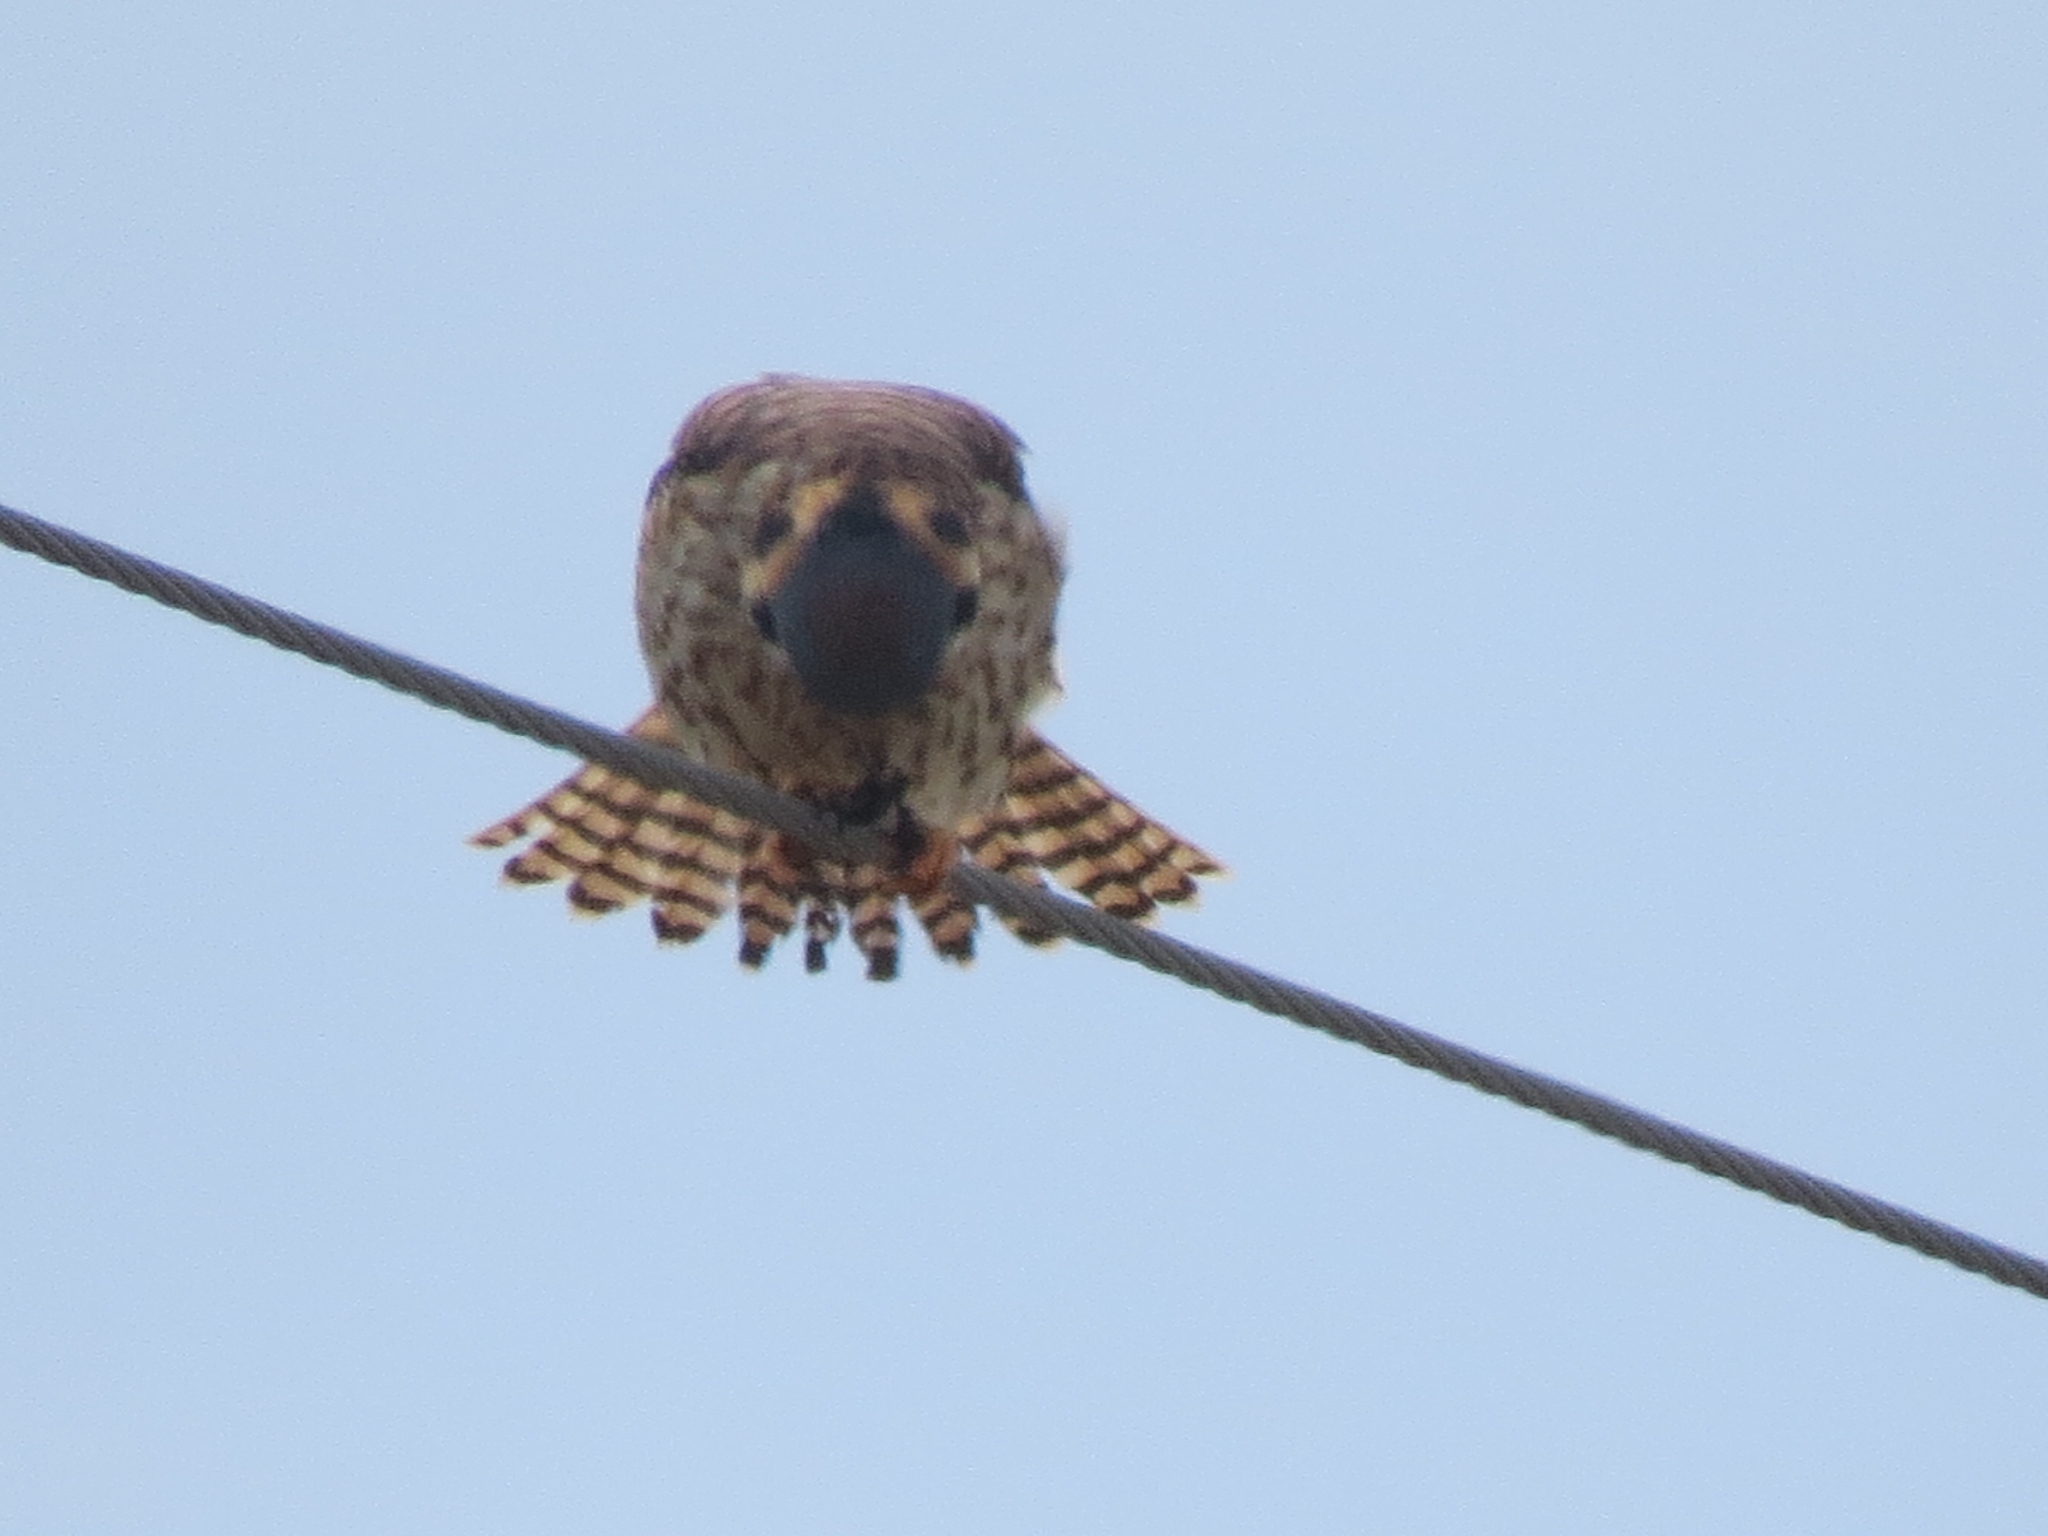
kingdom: Animalia
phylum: Chordata
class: Aves
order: Falconiformes
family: Falconidae
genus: Falco
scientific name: Falco sparverius
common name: American kestrel
